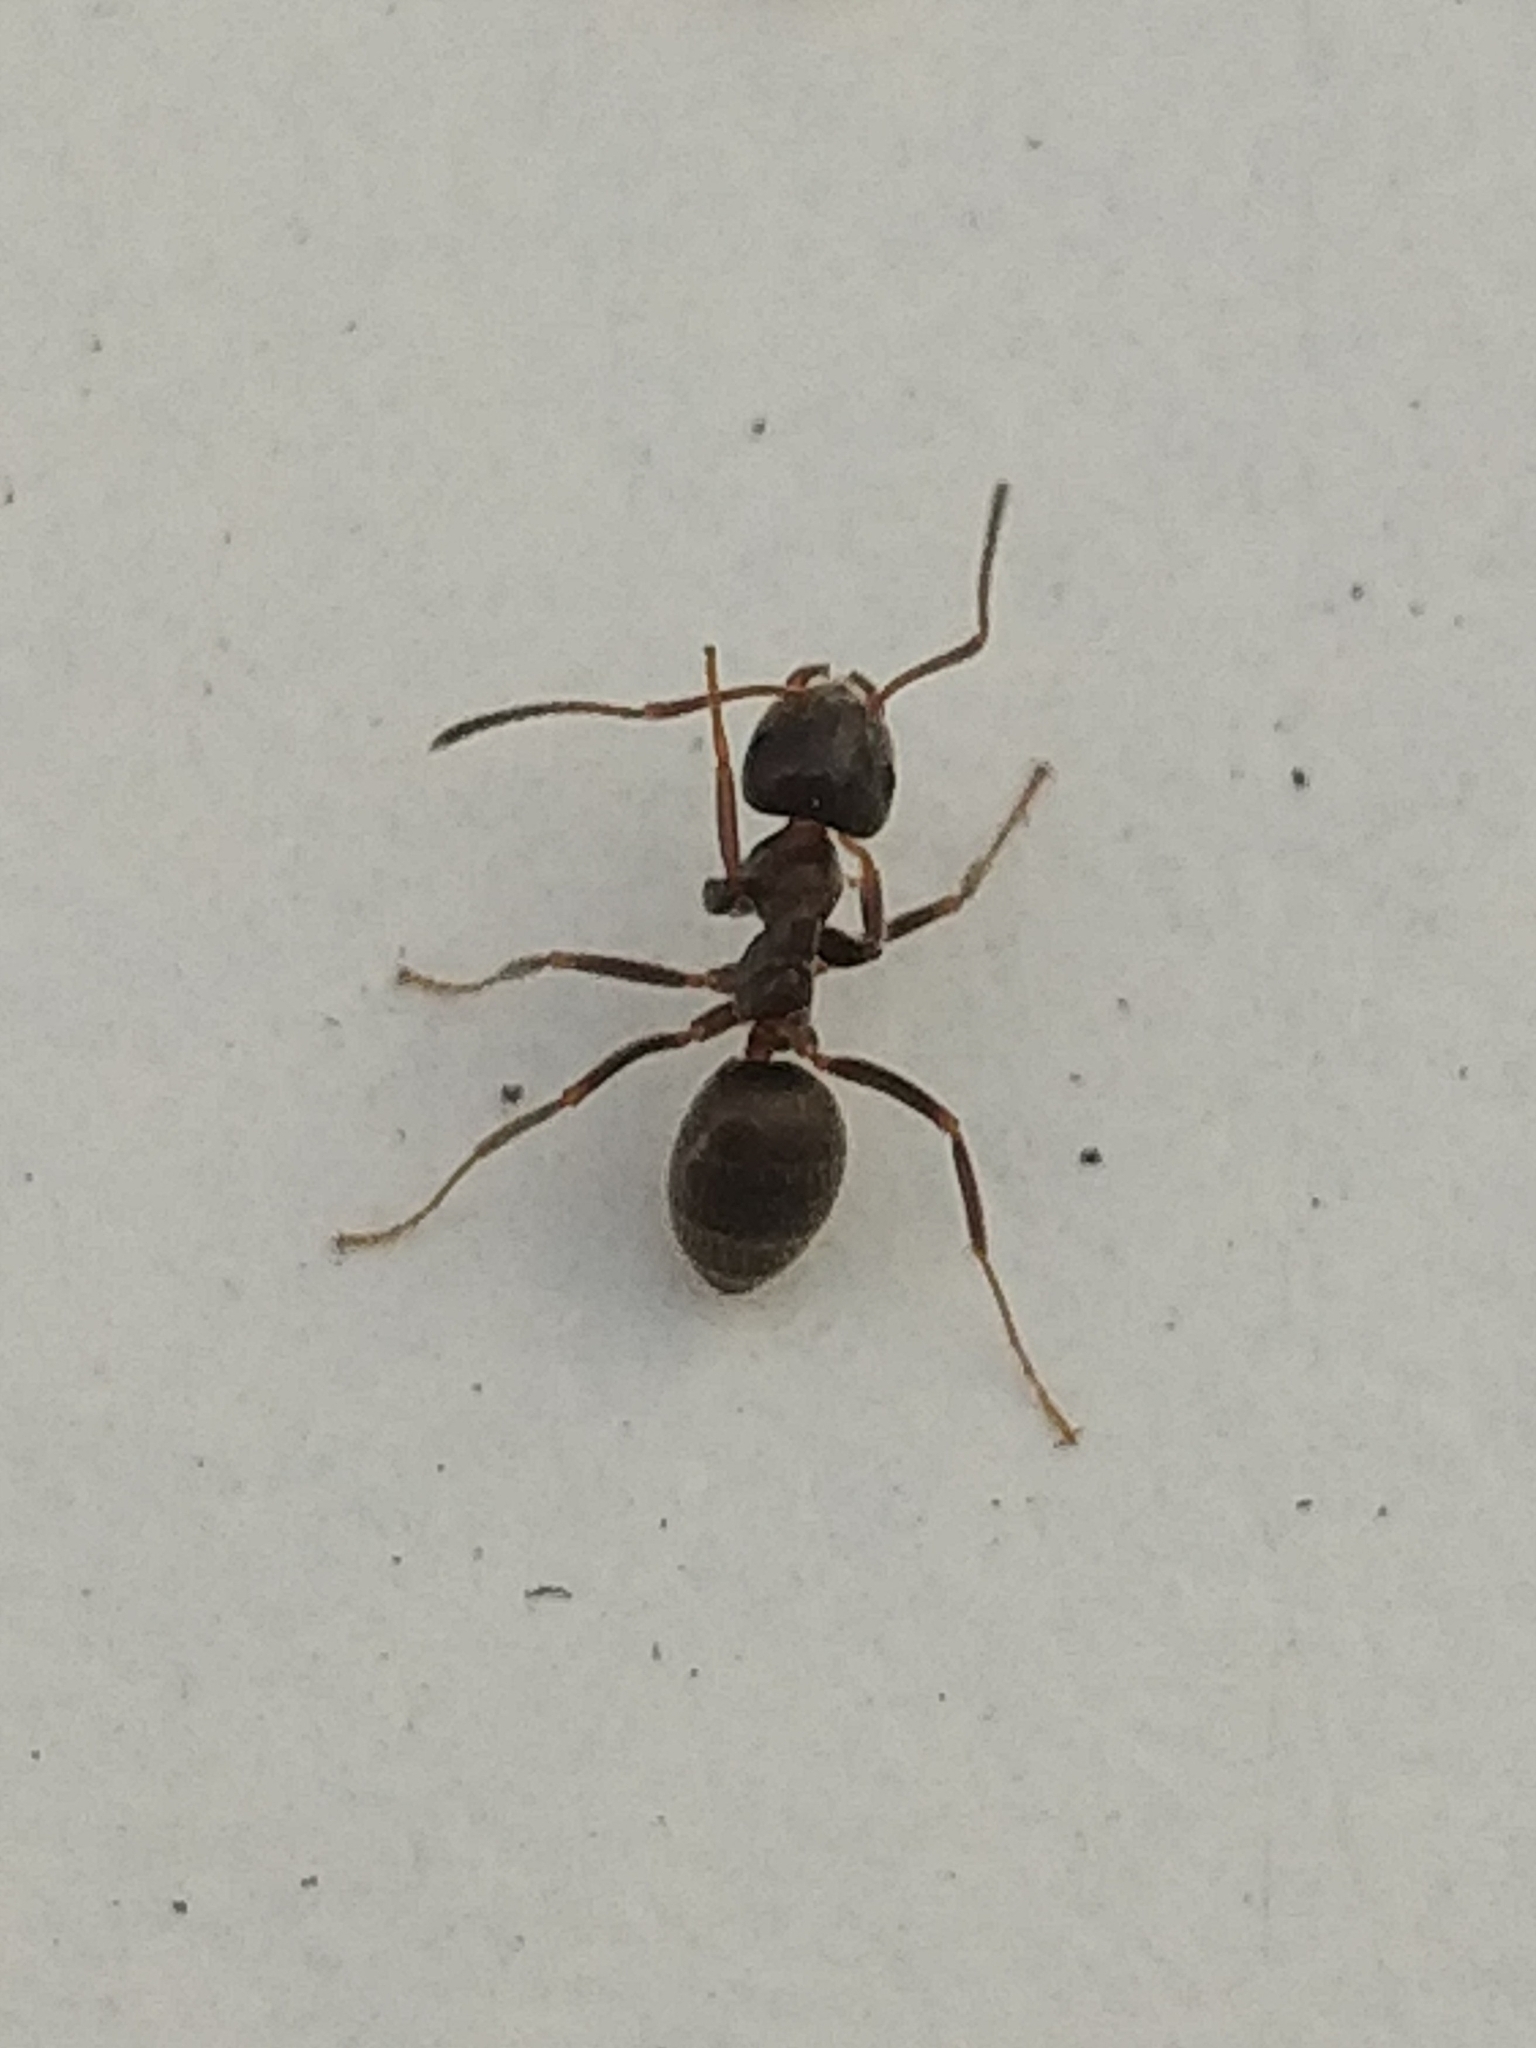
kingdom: Animalia
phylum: Arthropoda
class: Insecta
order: Hymenoptera
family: Formicidae
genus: Lasius
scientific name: Lasius grandis
